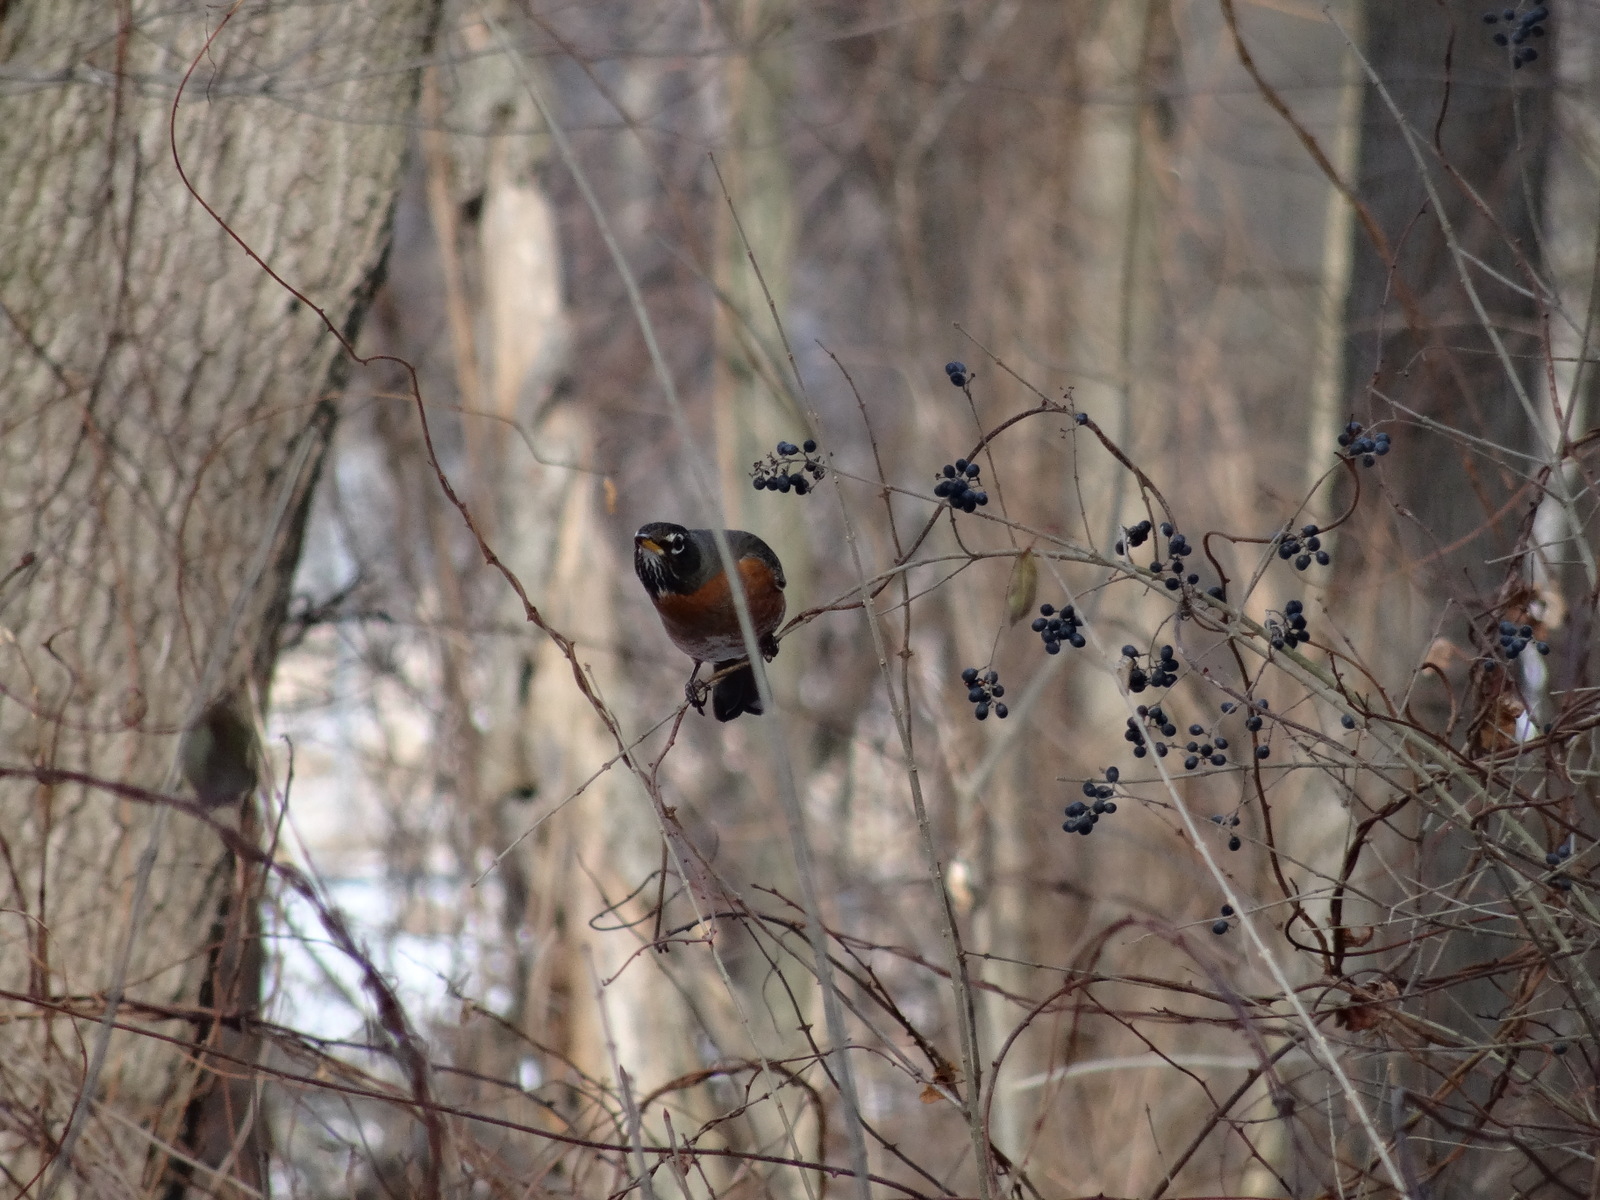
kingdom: Animalia
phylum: Chordata
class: Aves
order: Passeriformes
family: Turdidae
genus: Turdus
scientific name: Turdus migratorius
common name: American robin
